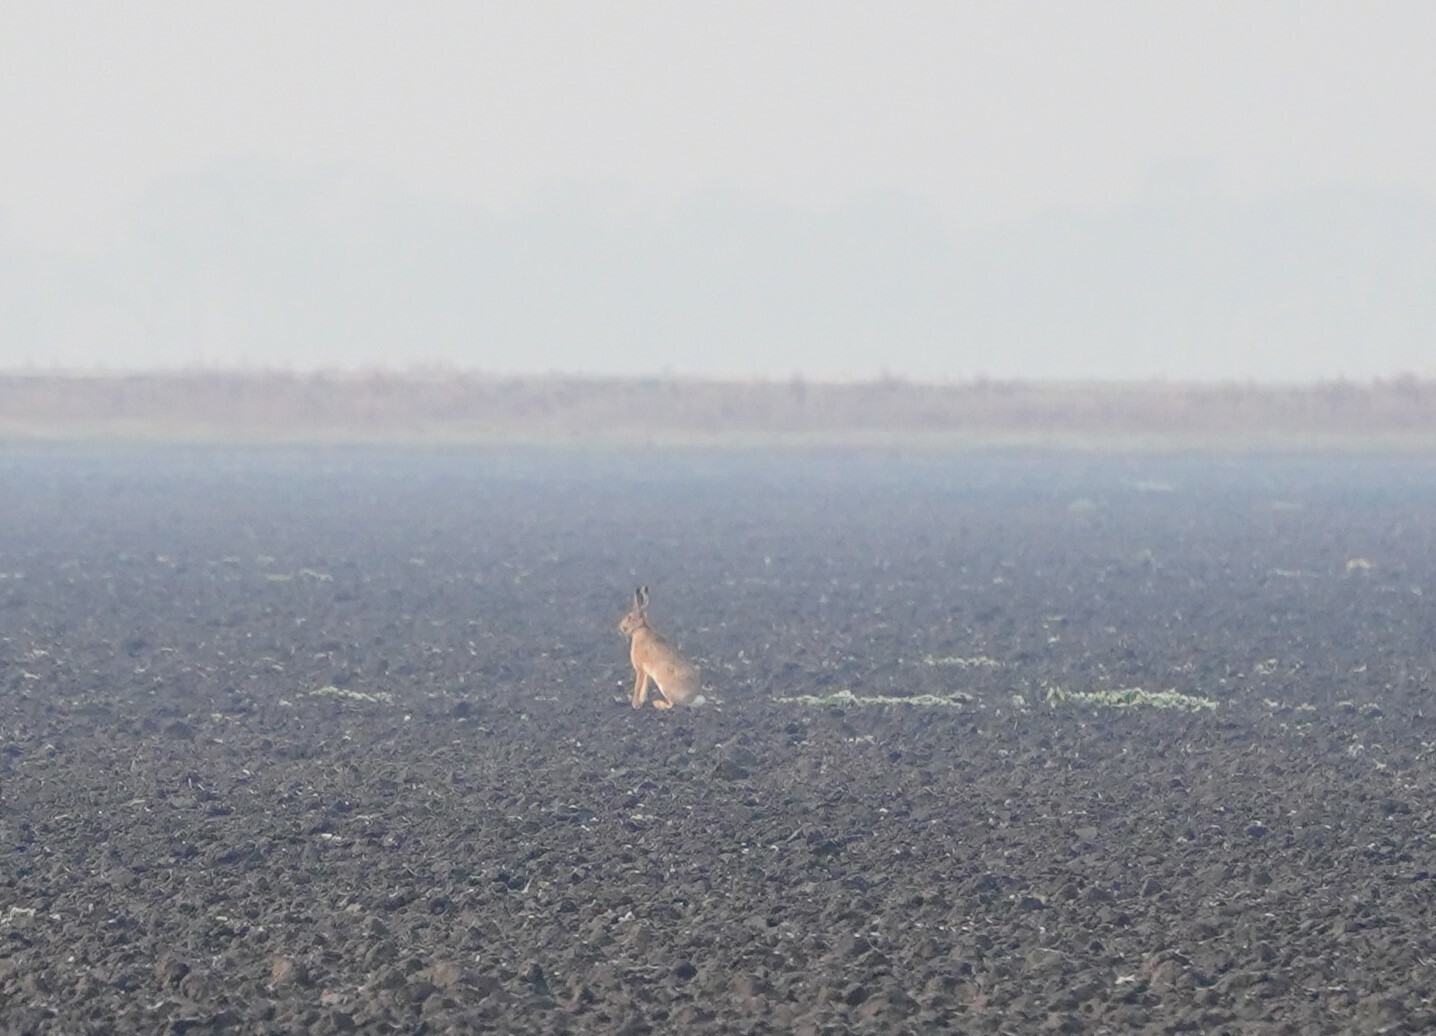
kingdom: Animalia
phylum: Chordata
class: Mammalia
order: Lagomorpha
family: Leporidae
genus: Lepus
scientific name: Lepus europaeus
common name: European hare
